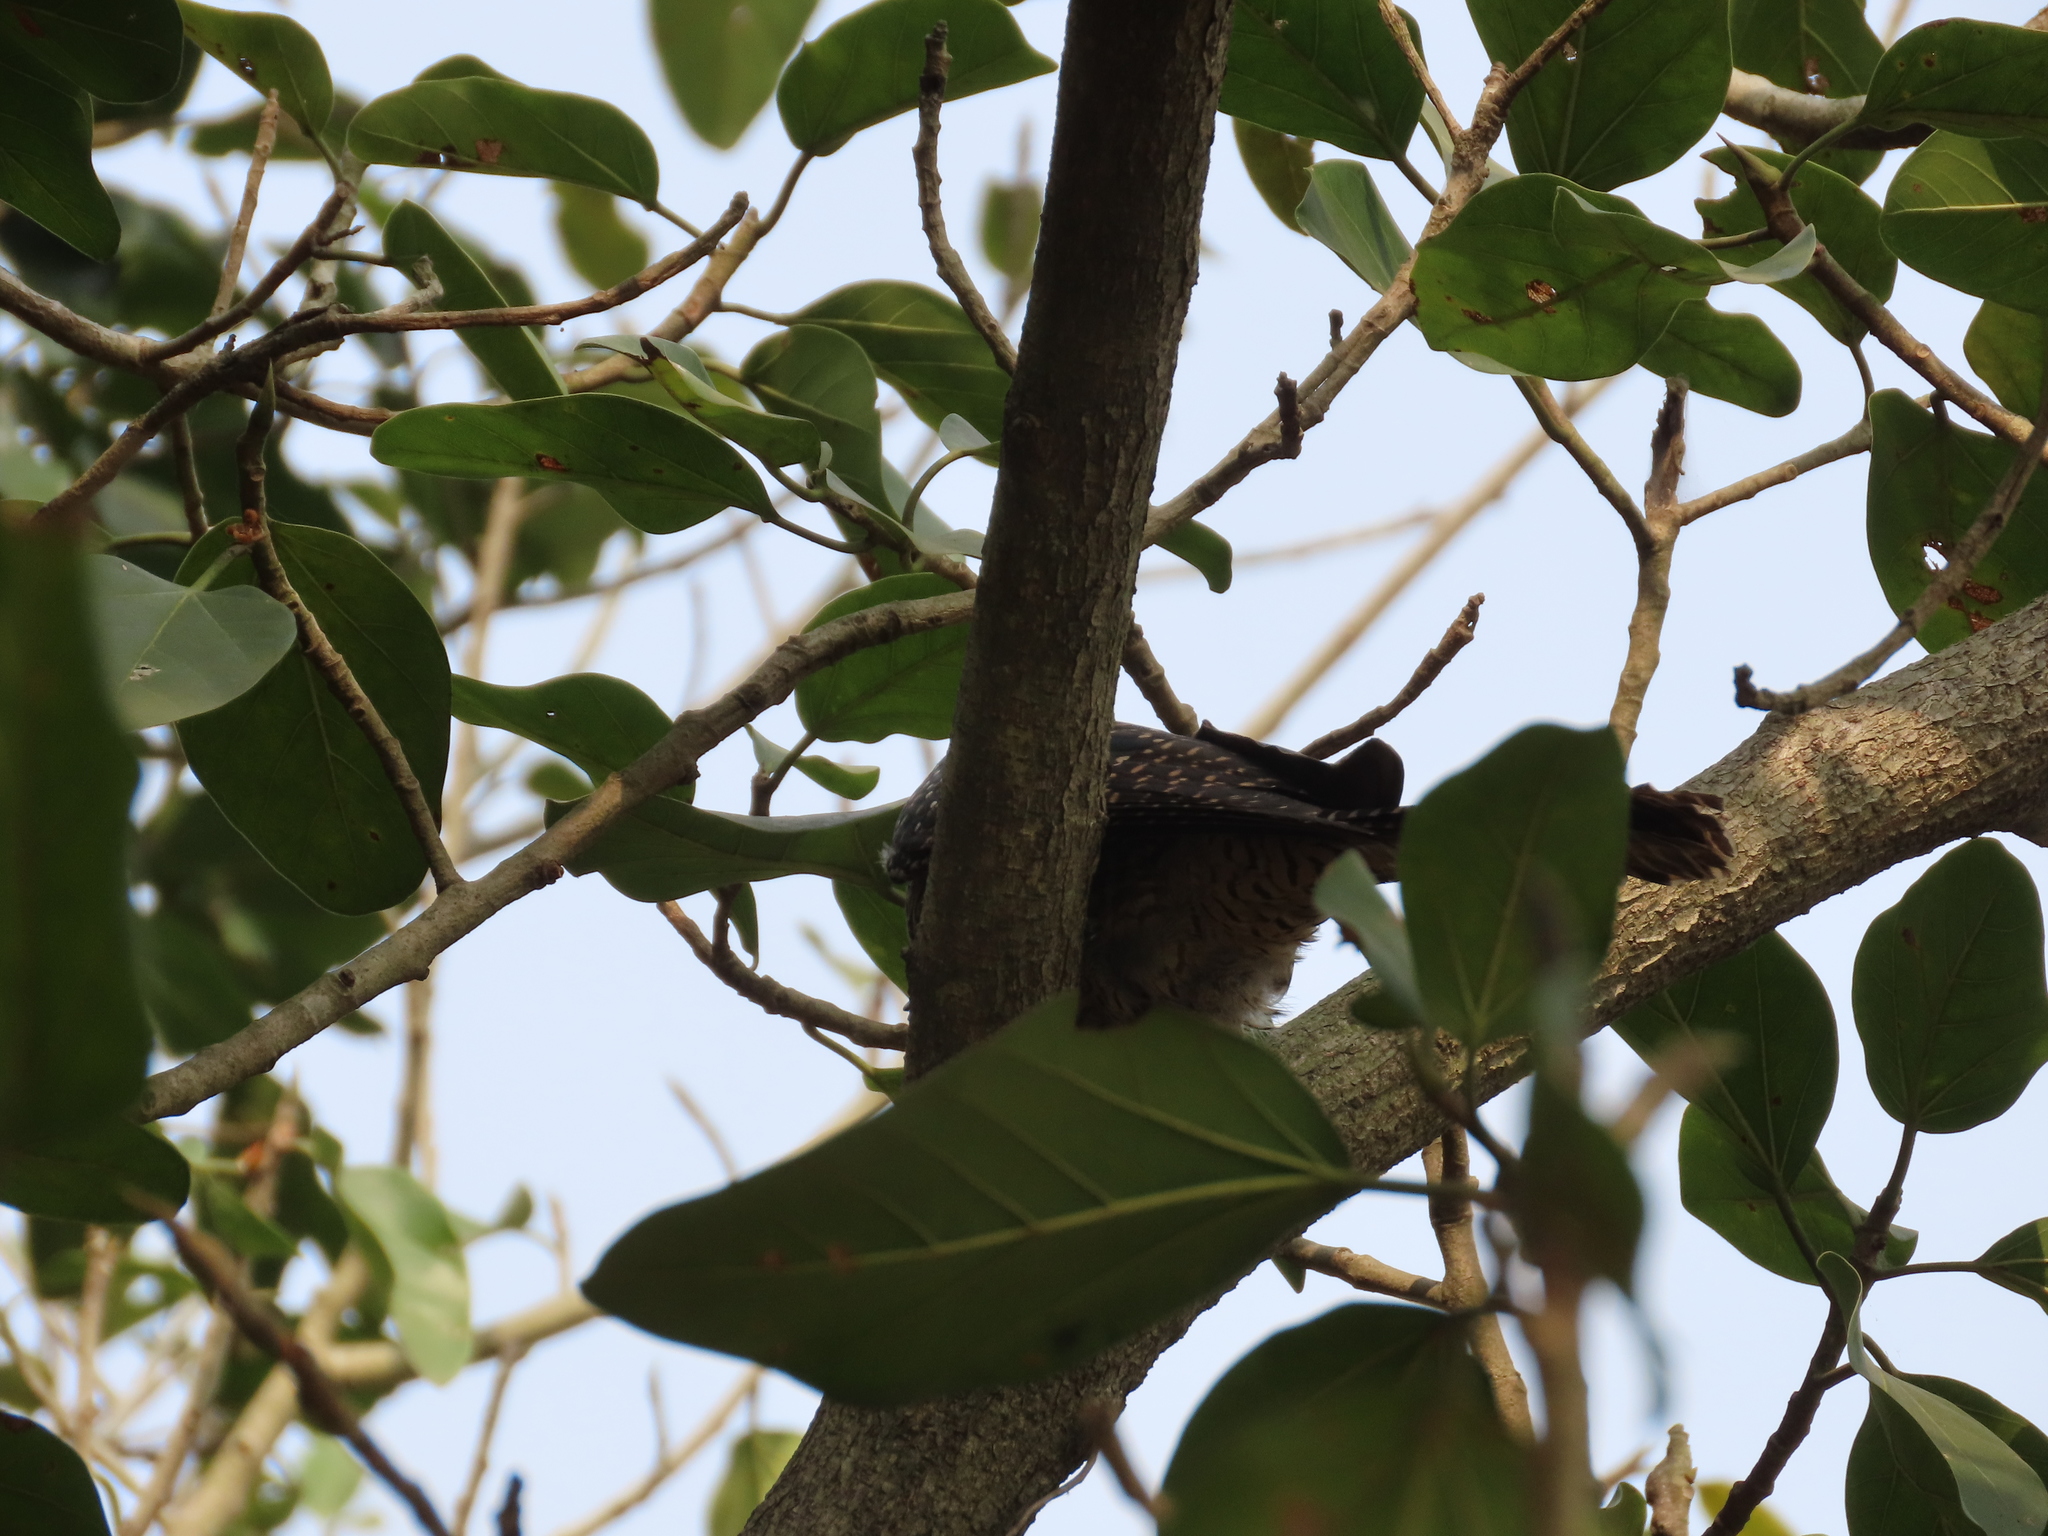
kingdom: Animalia
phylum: Chordata
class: Aves
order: Cuculiformes
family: Cuculidae
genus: Eudynamys
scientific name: Eudynamys scolopaceus
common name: Asian koel
